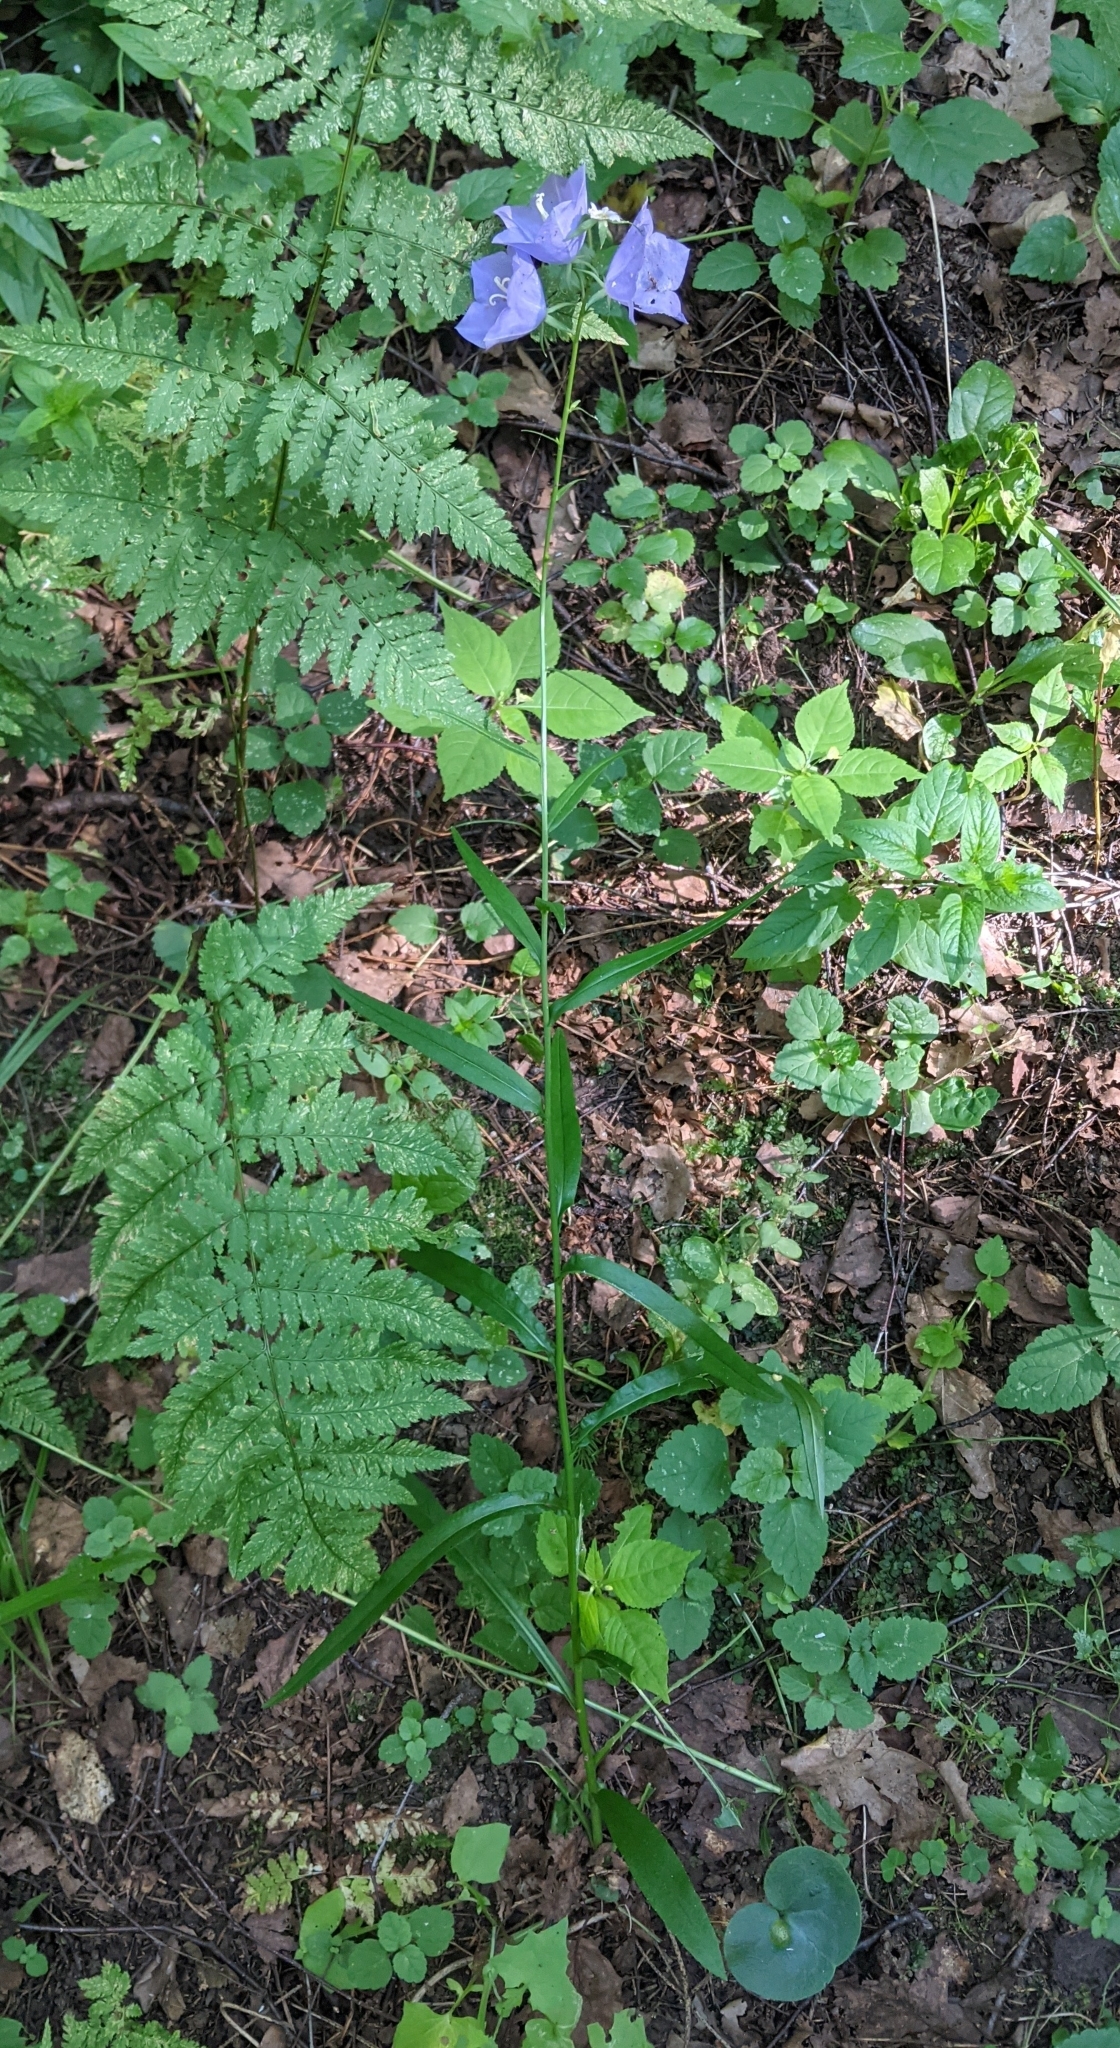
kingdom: Plantae
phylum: Tracheophyta
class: Magnoliopsida
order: Asterales
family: Campanulaceae
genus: Campanula
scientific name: Campanula persicifolia
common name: Peach-leaved bellflower
